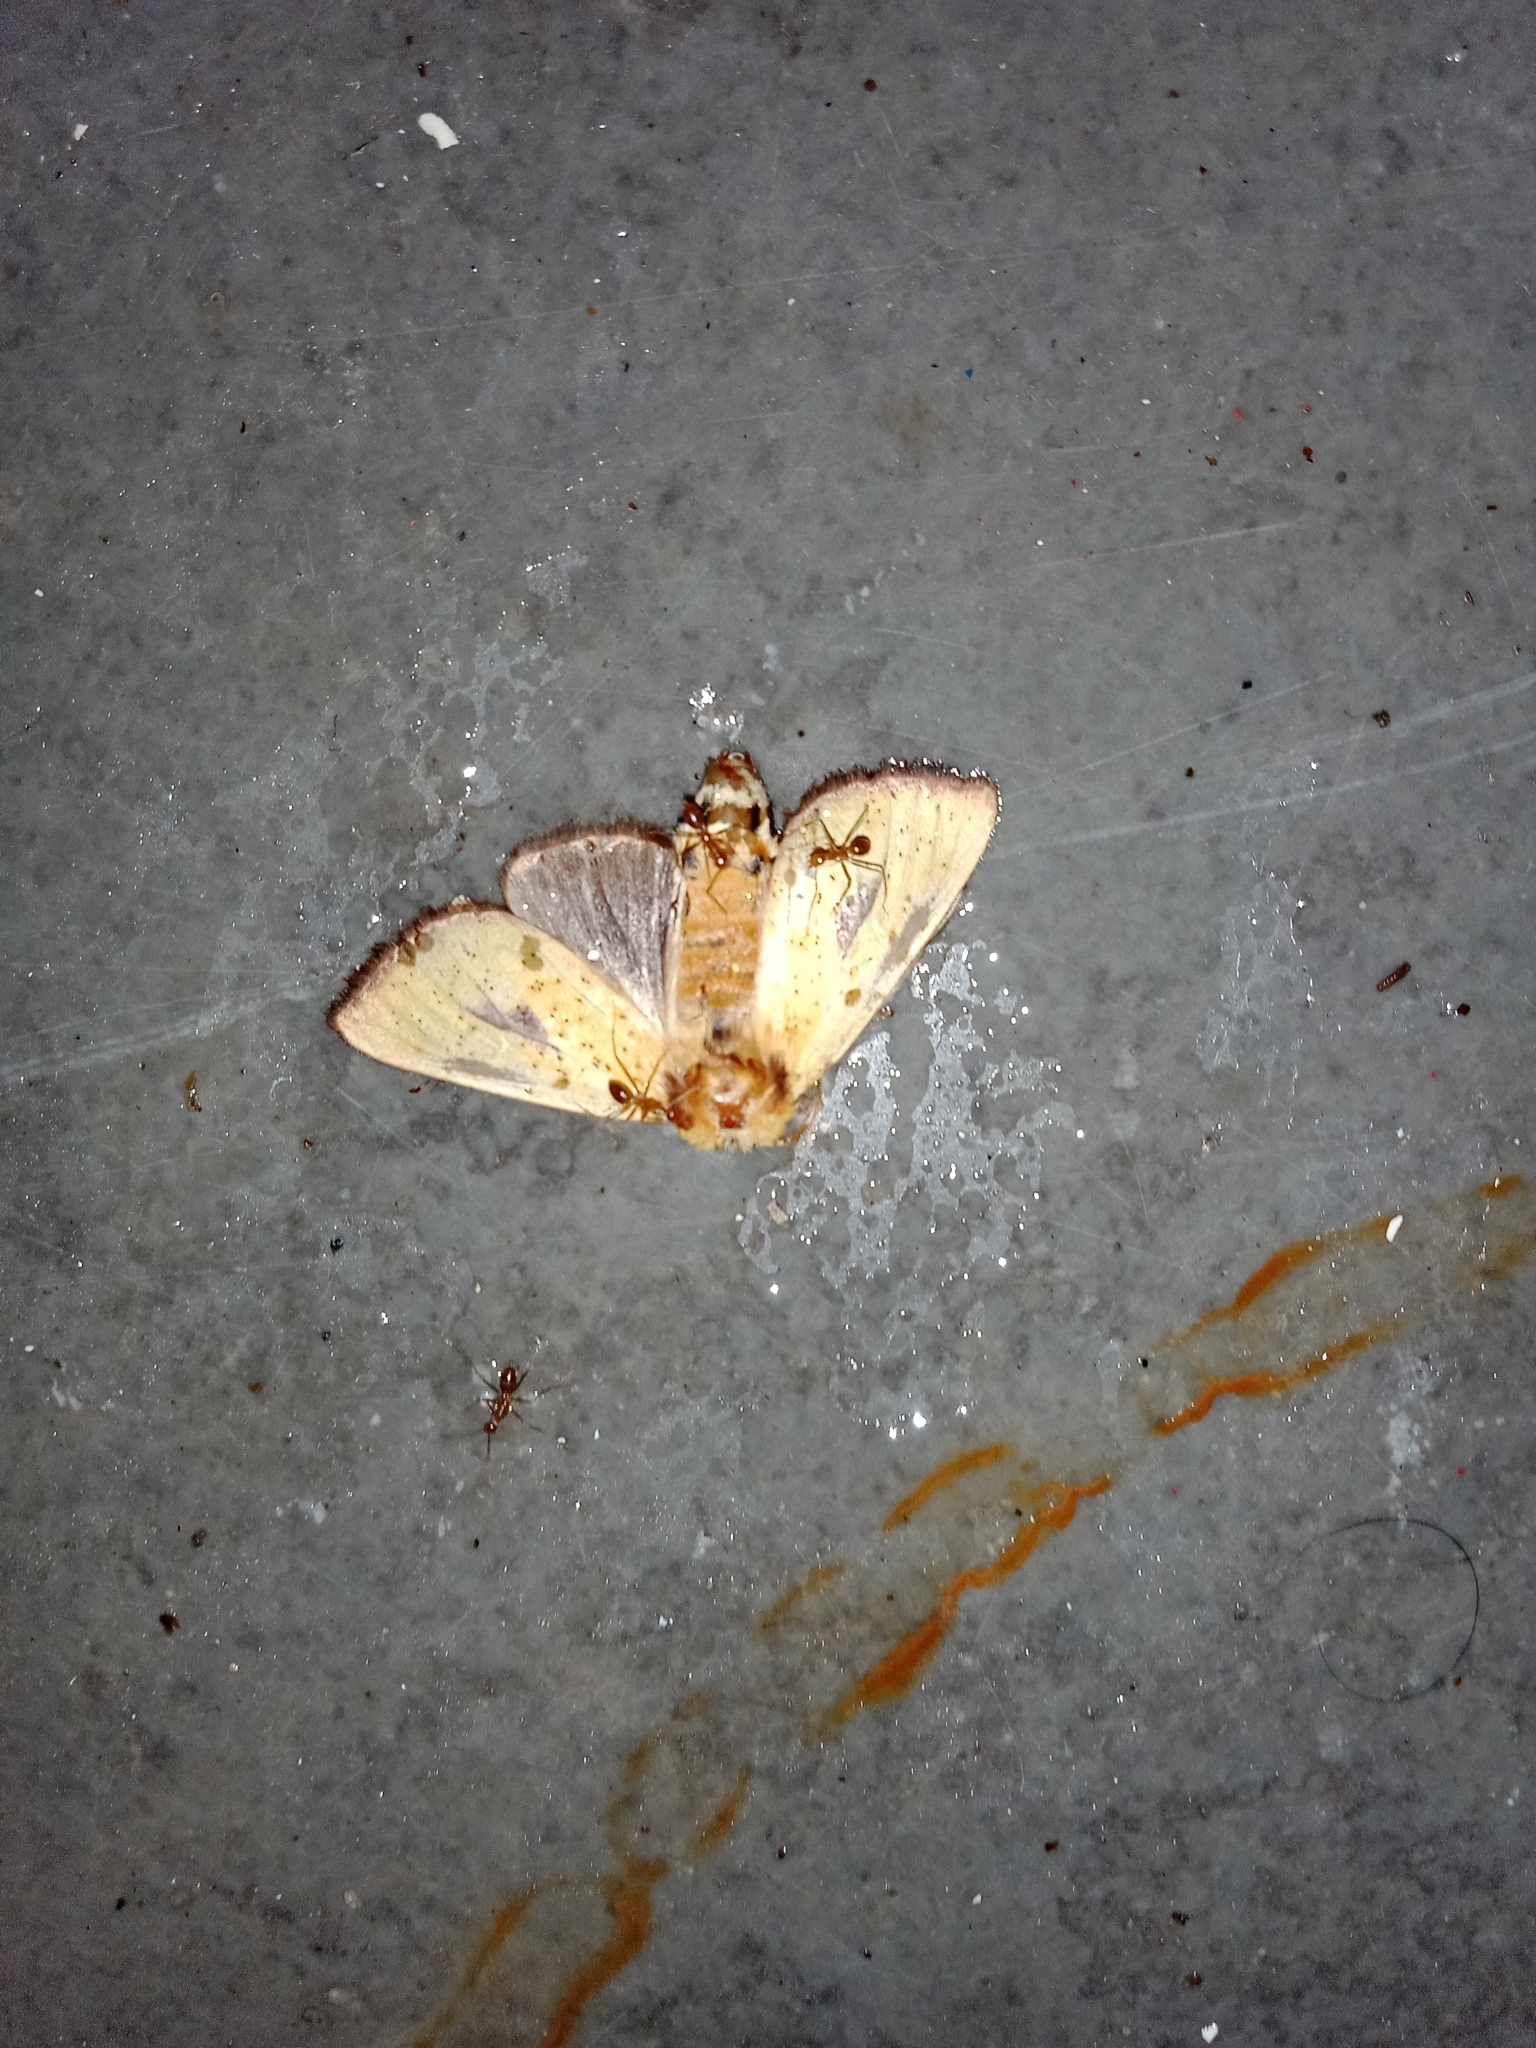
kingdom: Animalia
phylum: Arthropoda
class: Insecta
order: Lepidoptera
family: Notodontidae
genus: Antheua
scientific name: Antheua servula
